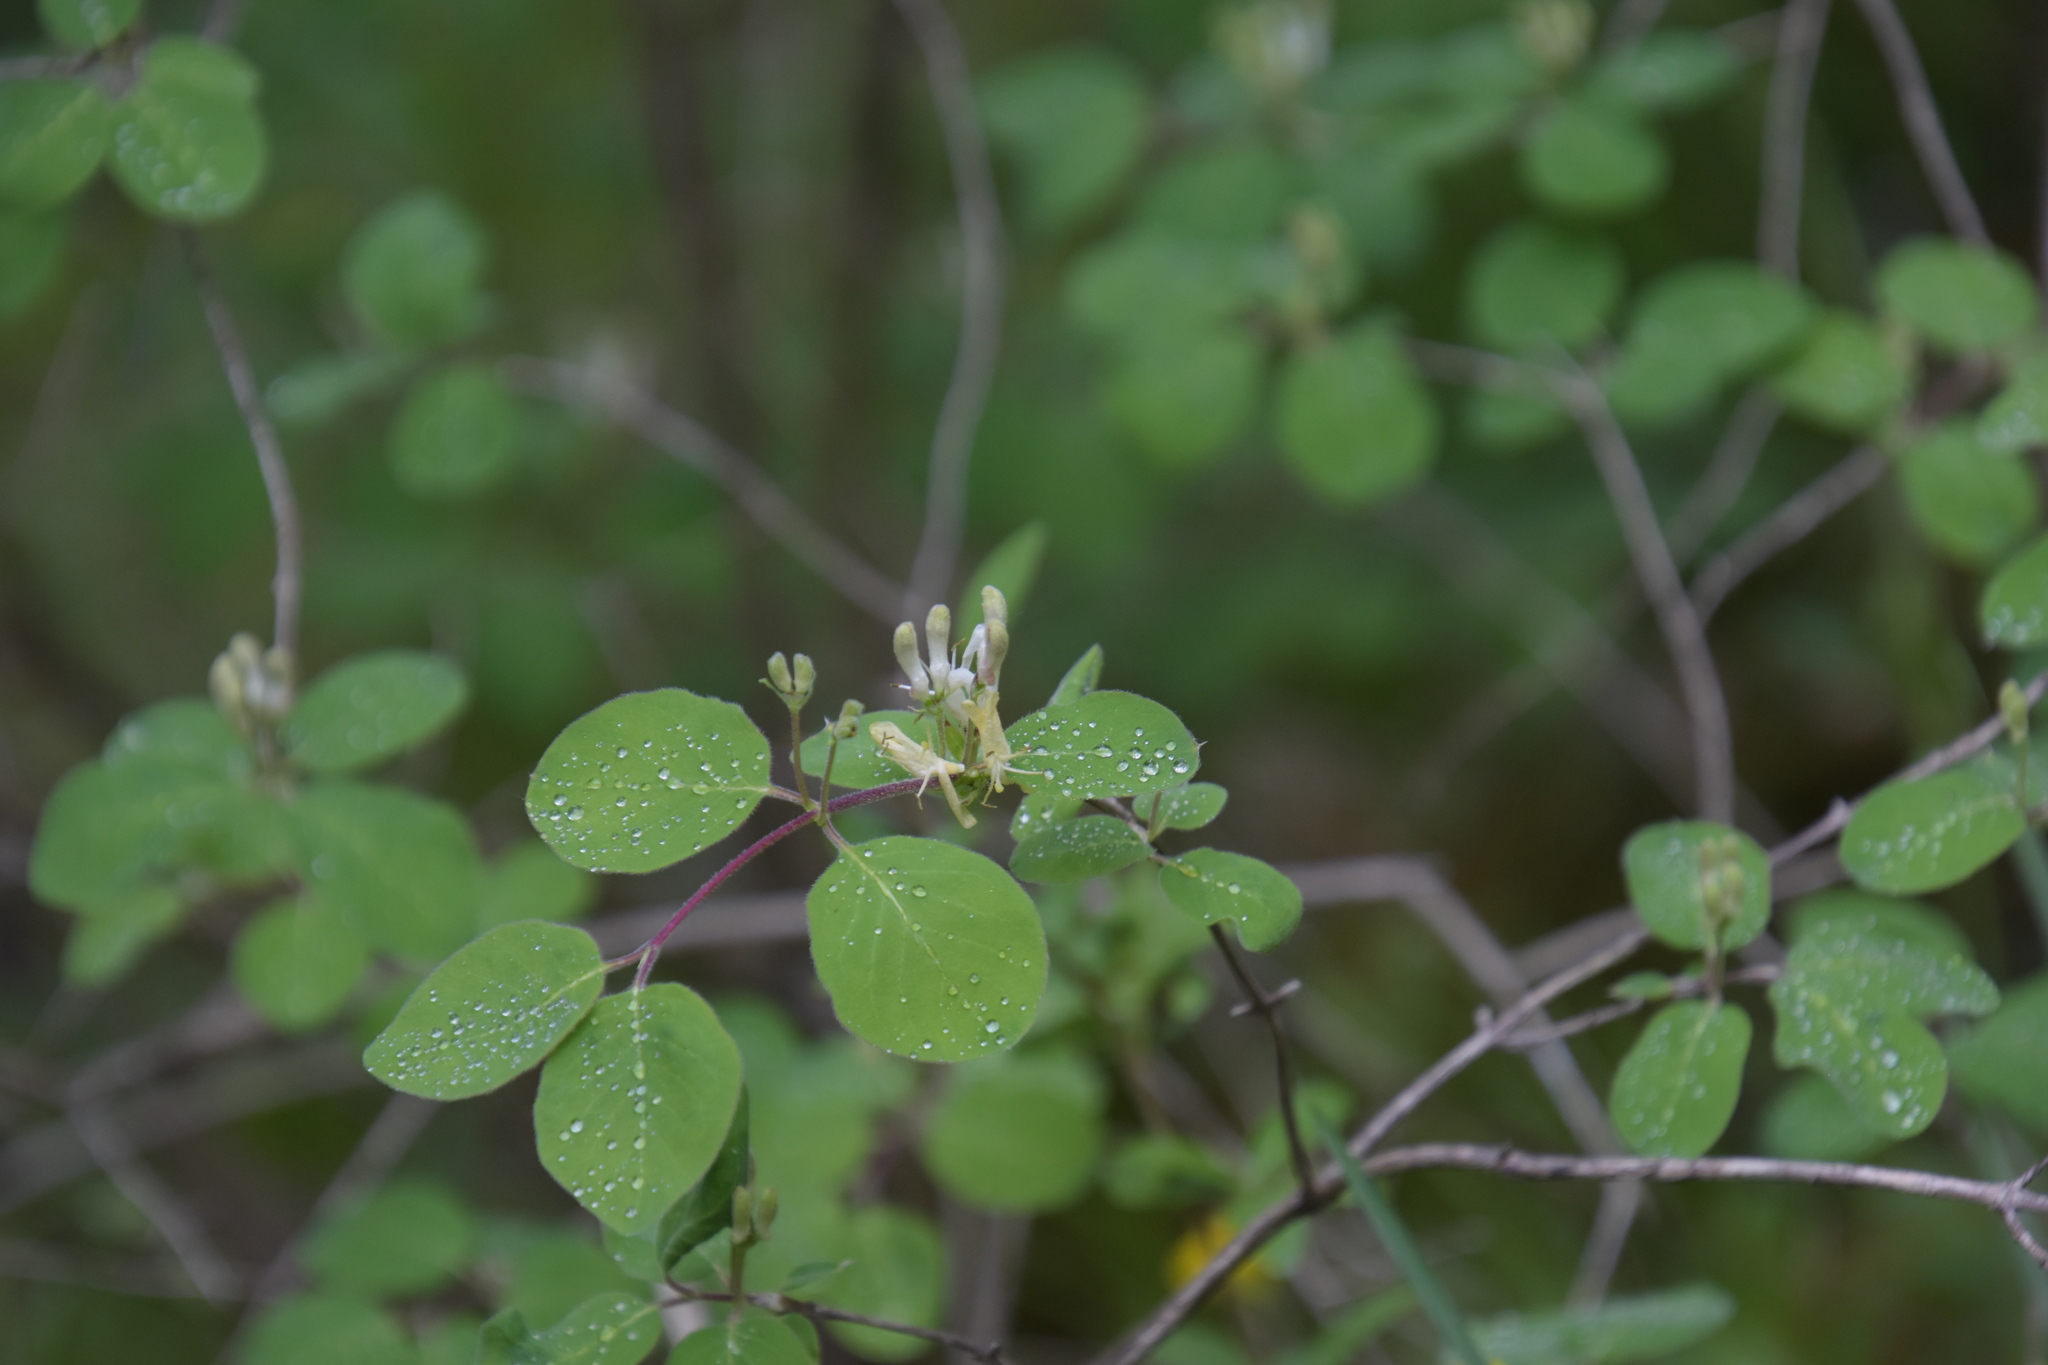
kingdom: Plantae
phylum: Tracheophyta
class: Magnoliopsida
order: Dipsacales
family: Caprifoliaceae
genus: Lonicera
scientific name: Lonicera xylosteum
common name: Fly honeysuckle
